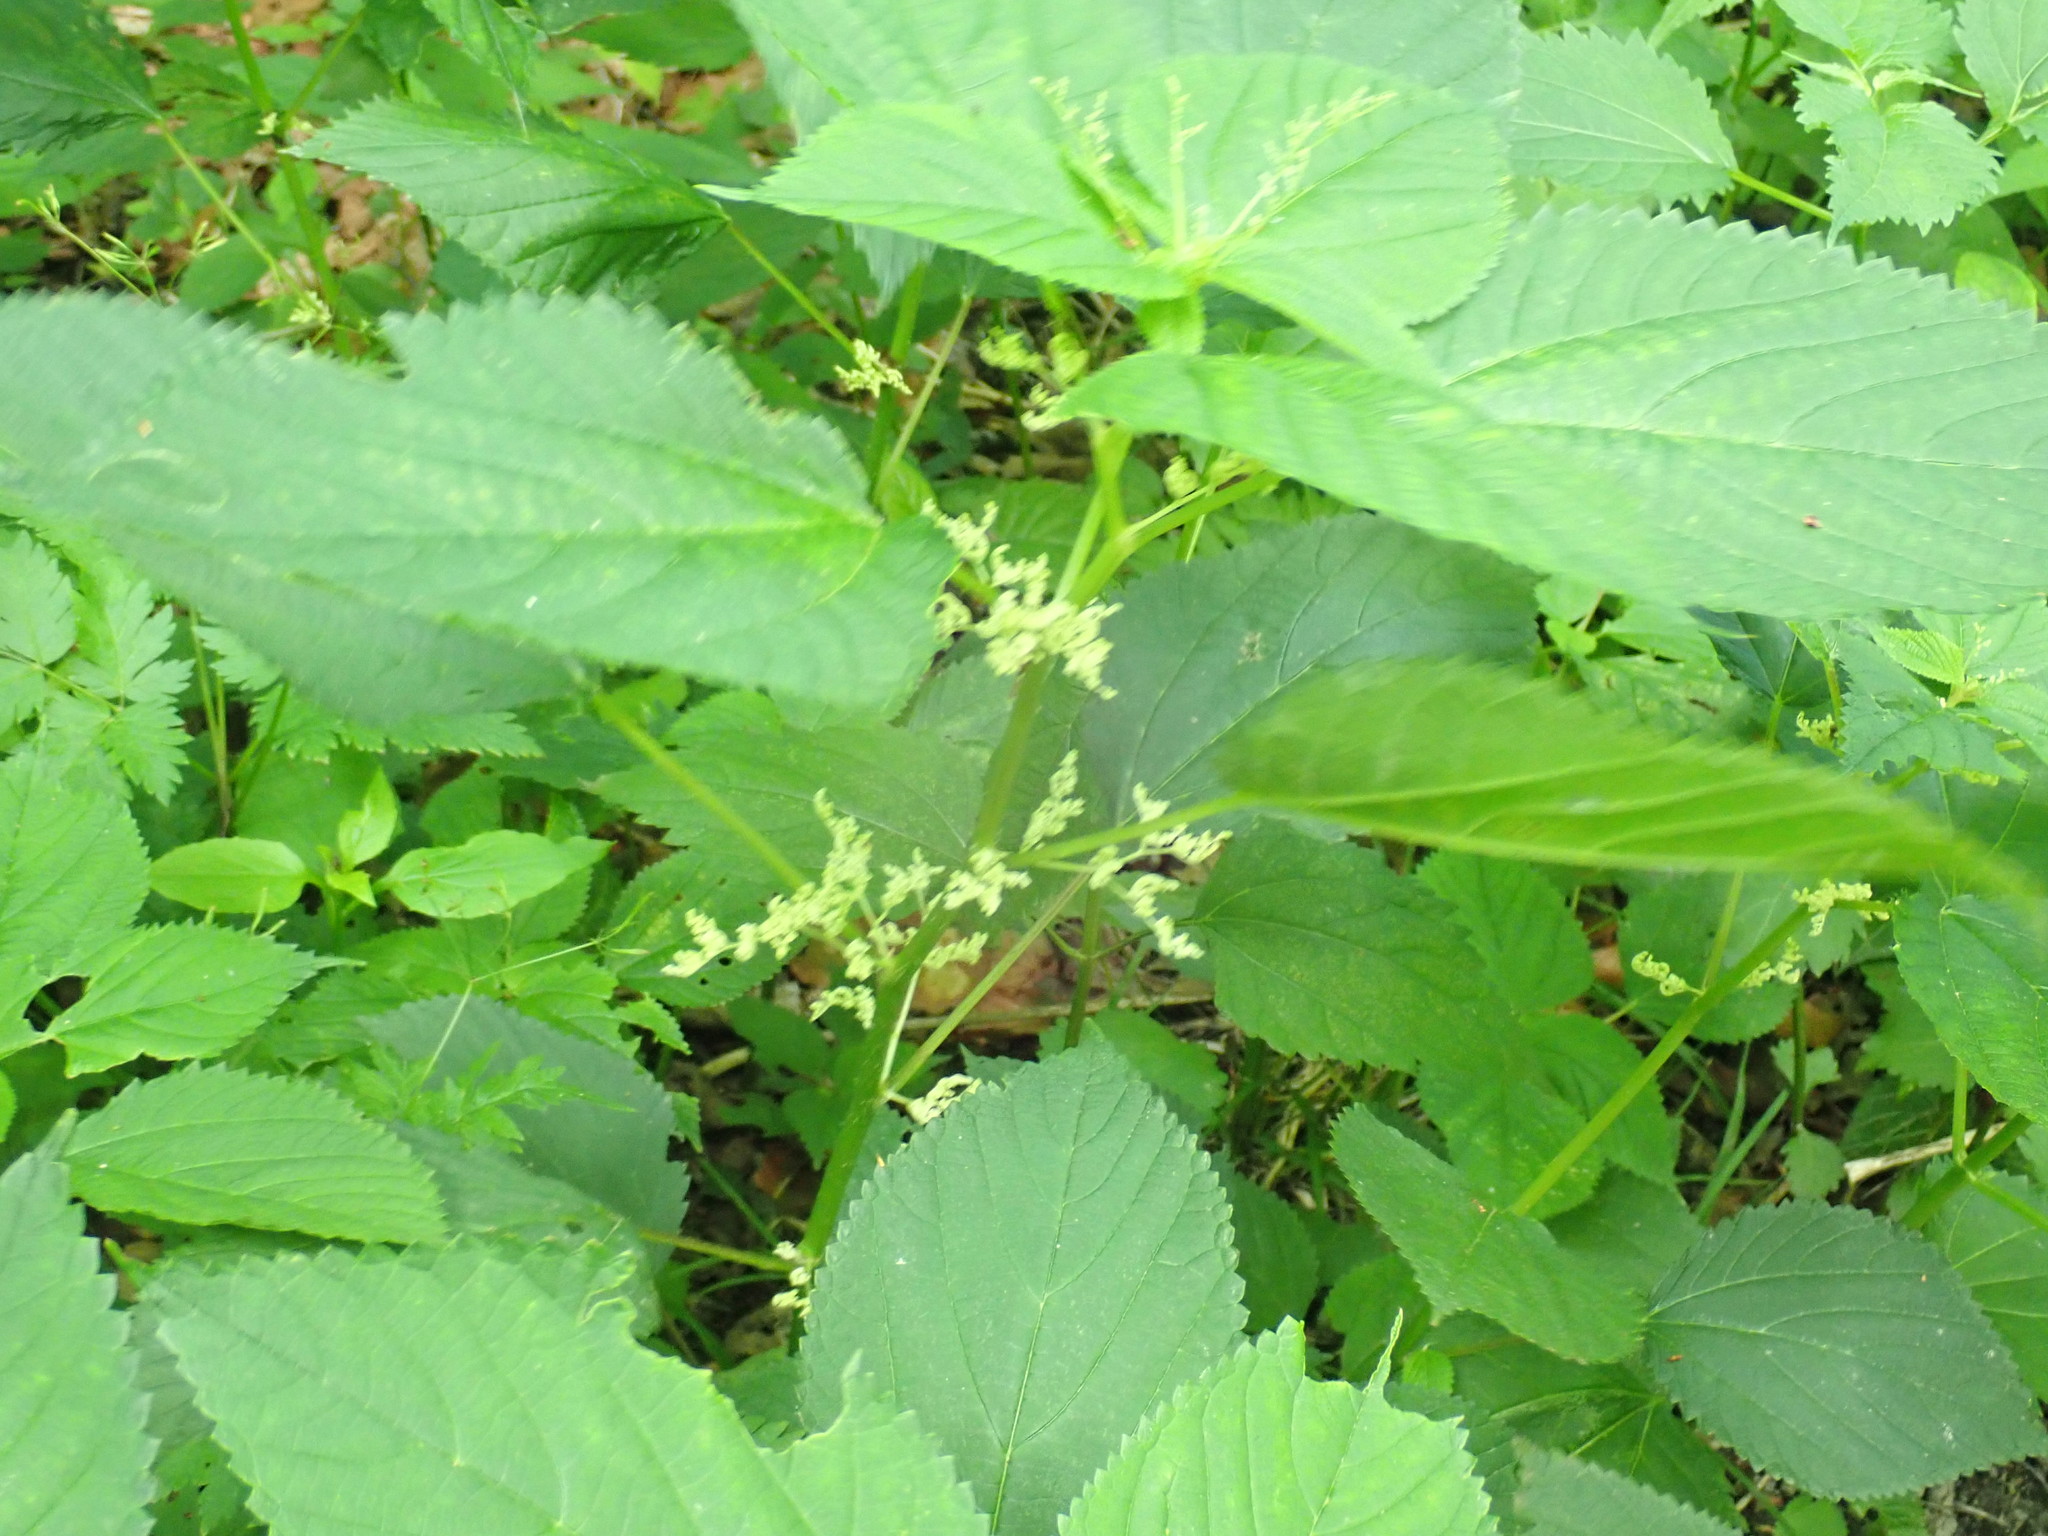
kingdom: Plantae
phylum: Tracheophyta
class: Magnoliopsida
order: Rosales
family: Urticaceae
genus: Laportea
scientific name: Laportea canadensis
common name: Canada nettle
